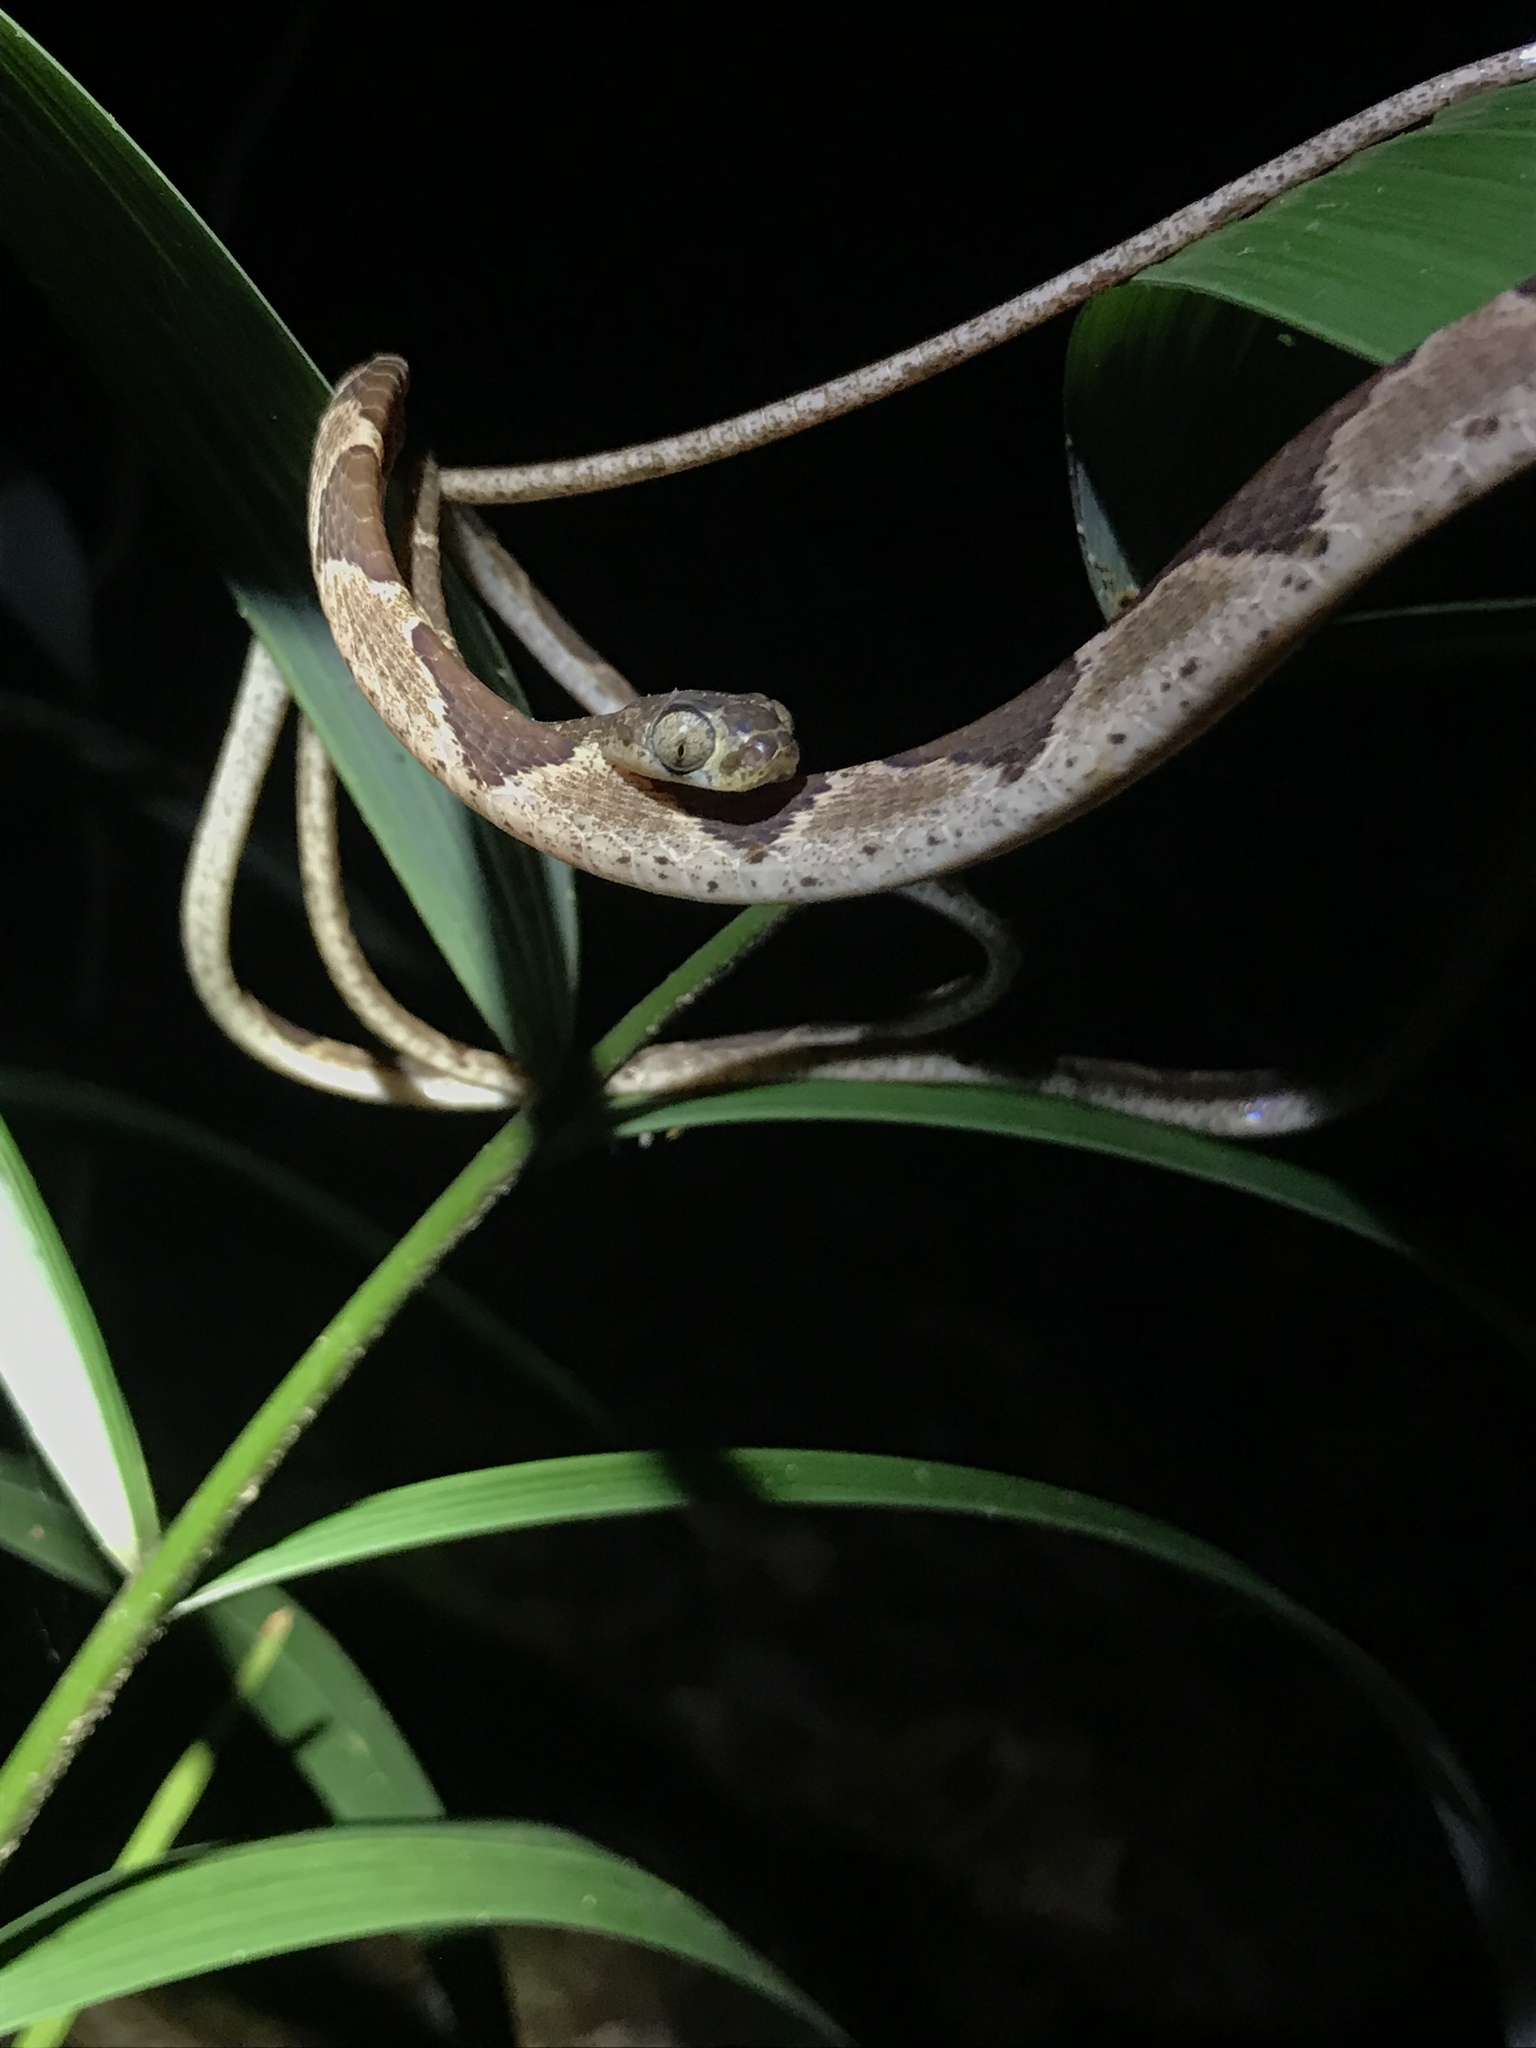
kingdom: Animalia
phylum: Chordata
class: Squamata
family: Colubridae
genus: Imantodes
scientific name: Imantodes cenchoa
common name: Blunthead tree snake
